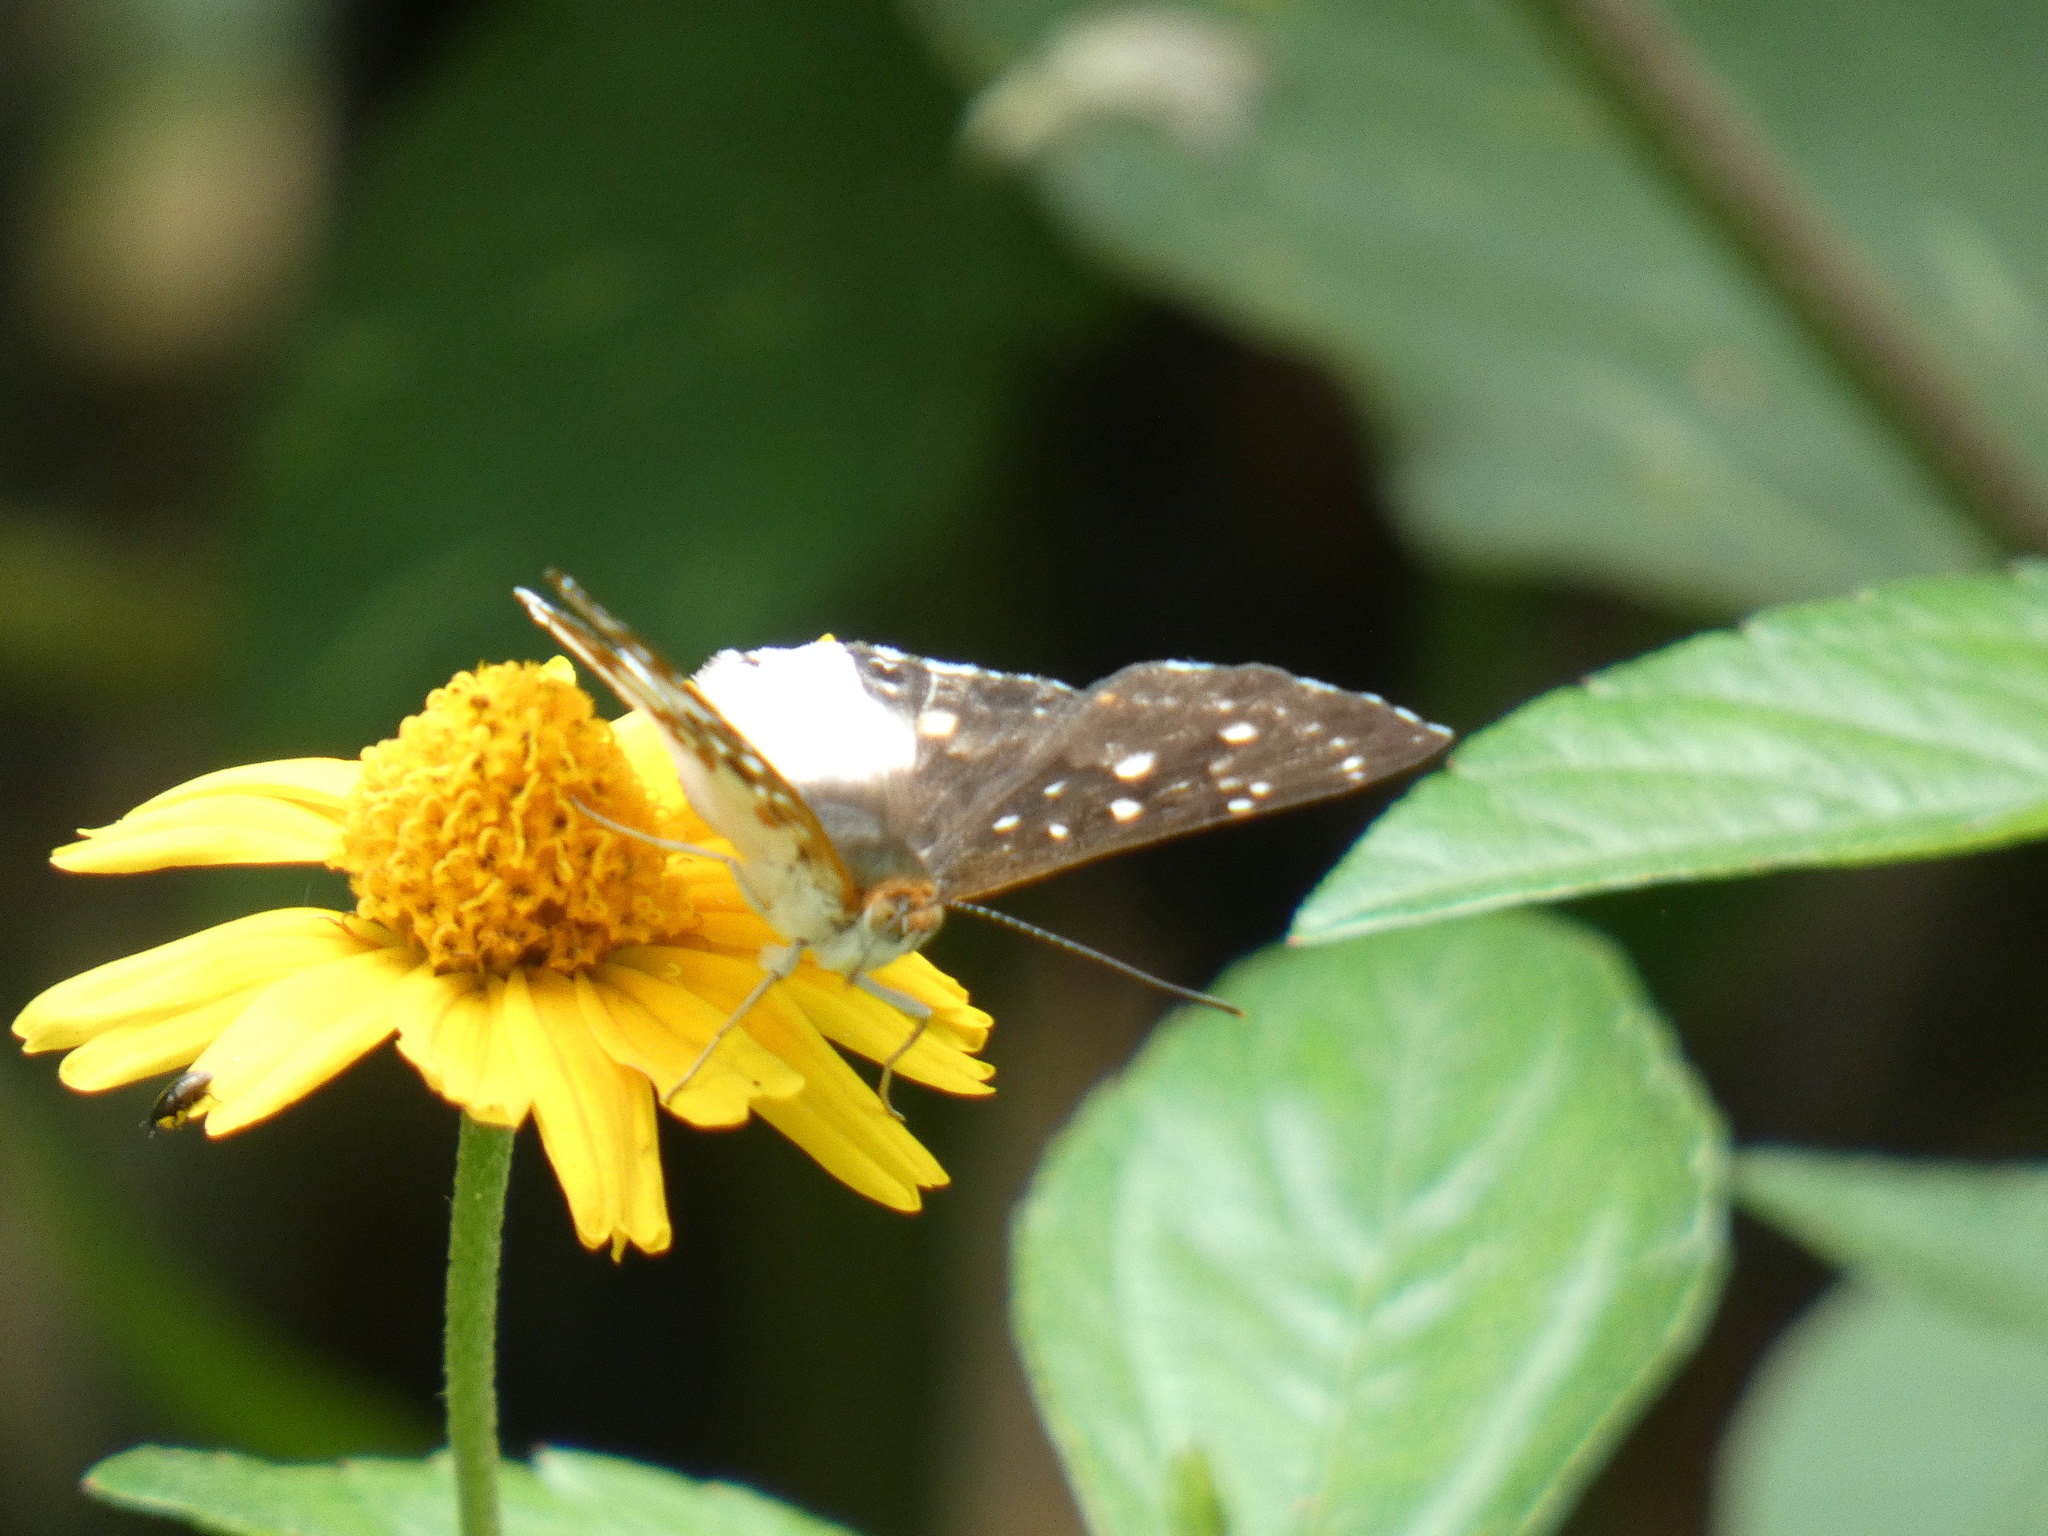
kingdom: Animalia
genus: Lemonias
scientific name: Lemonias zygia
